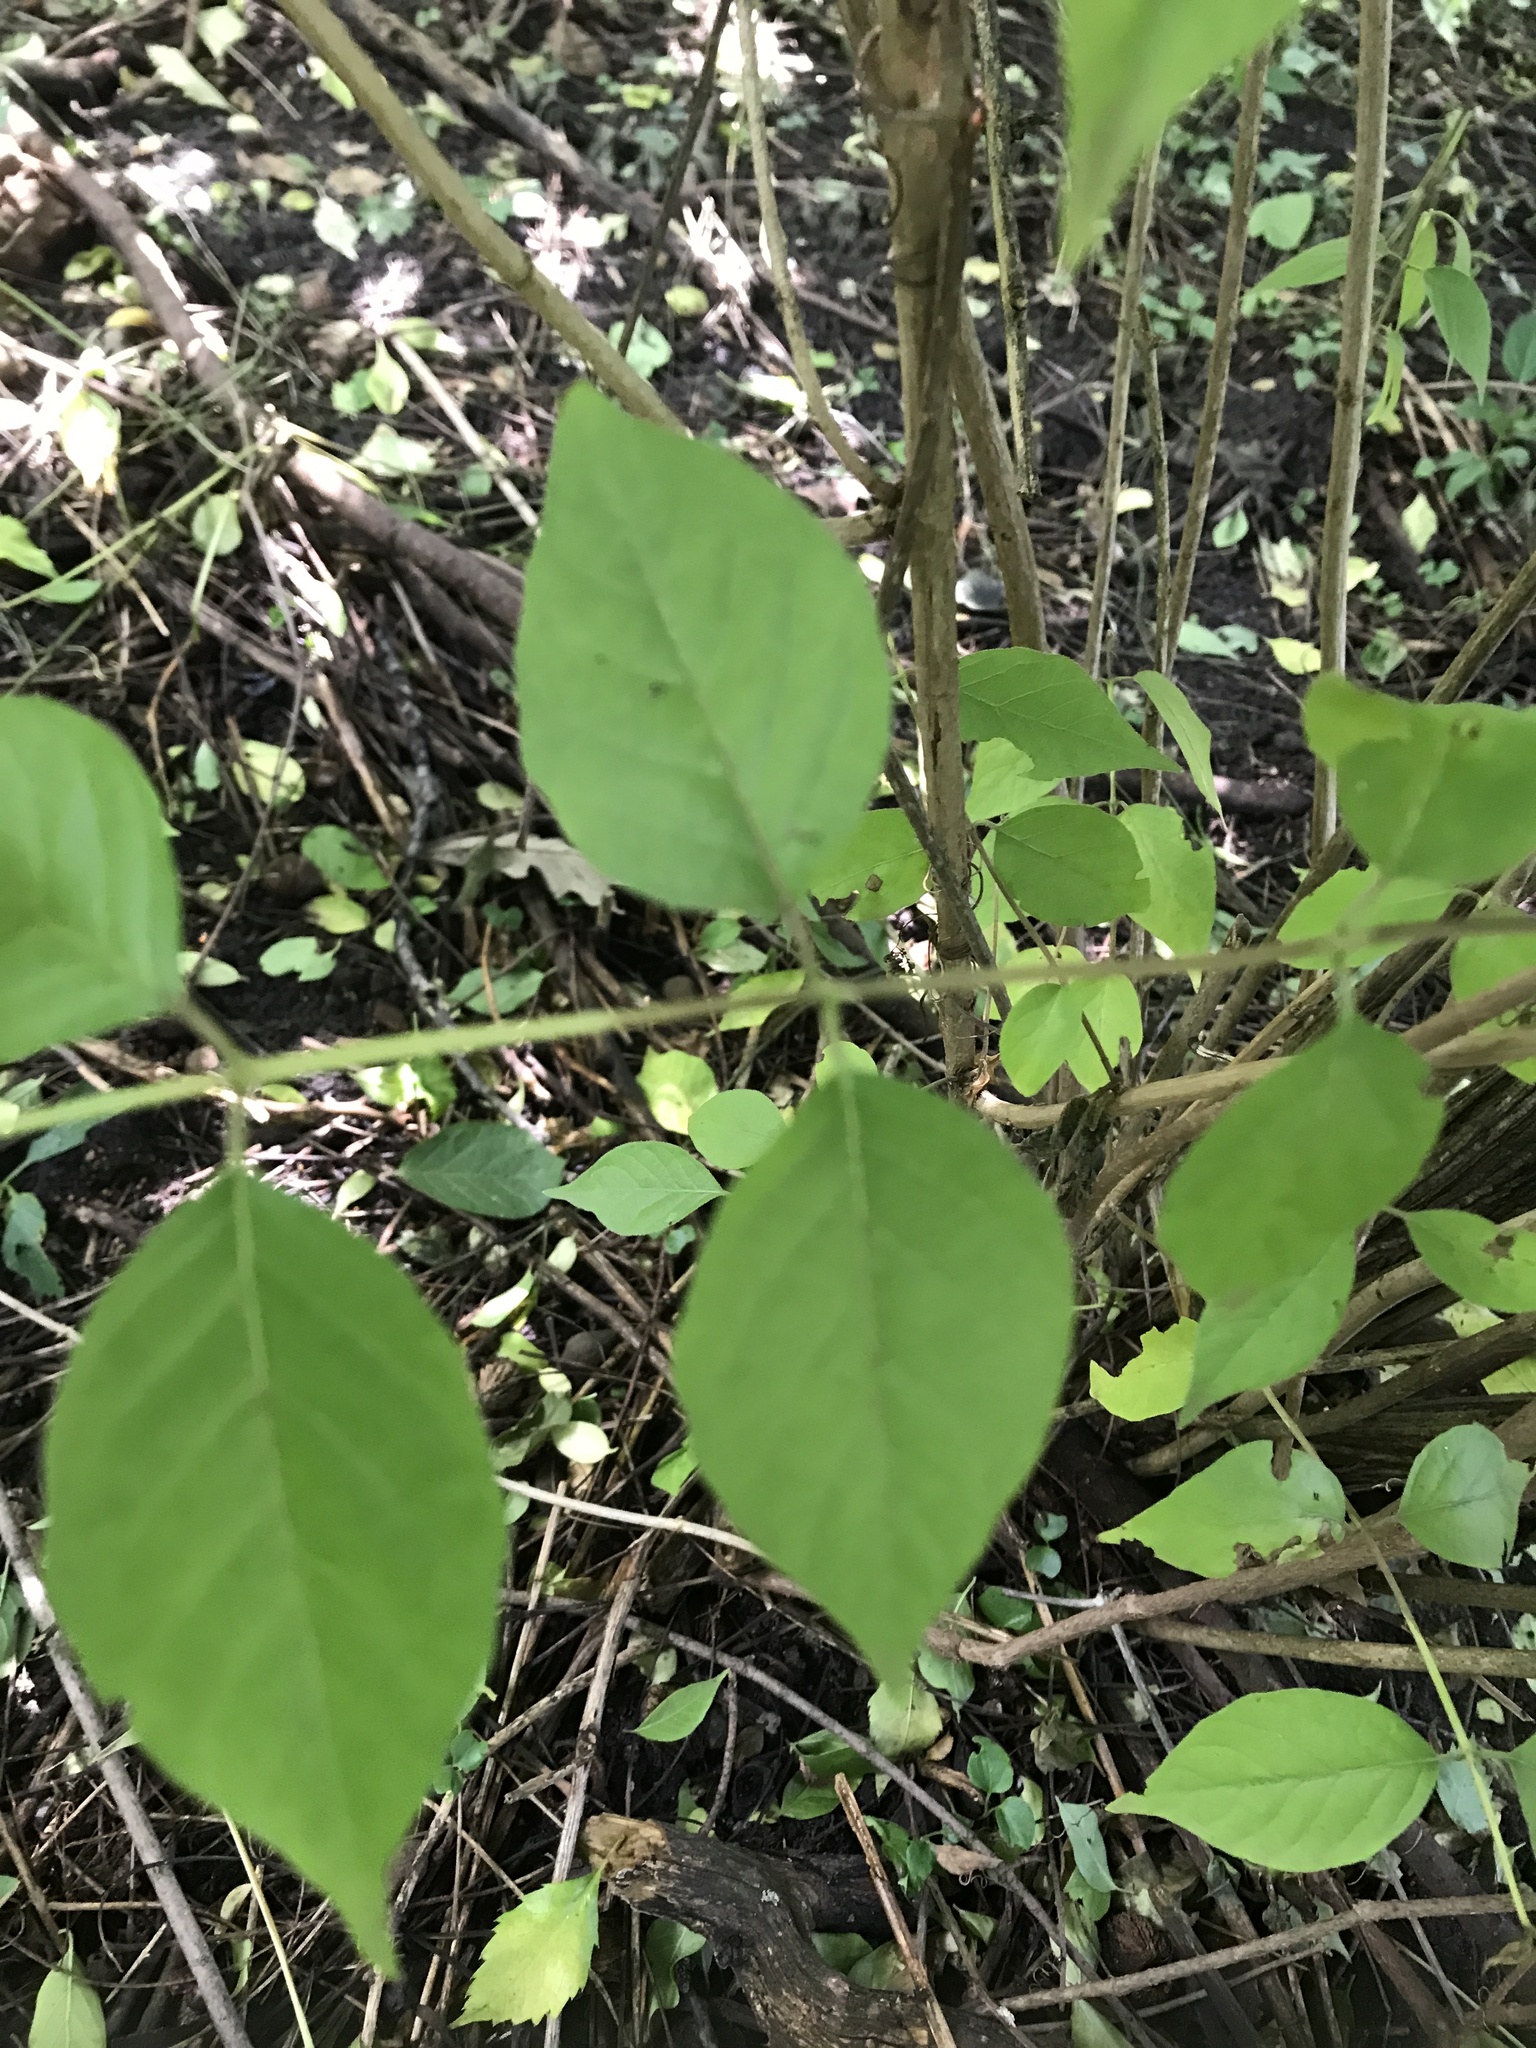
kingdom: Plantae
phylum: Tracheophyta
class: Magnoliopsida
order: Dipsacales
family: Caprifoliaceae
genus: Lonicera
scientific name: Lonicera maackii
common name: Amur honeysuckle
